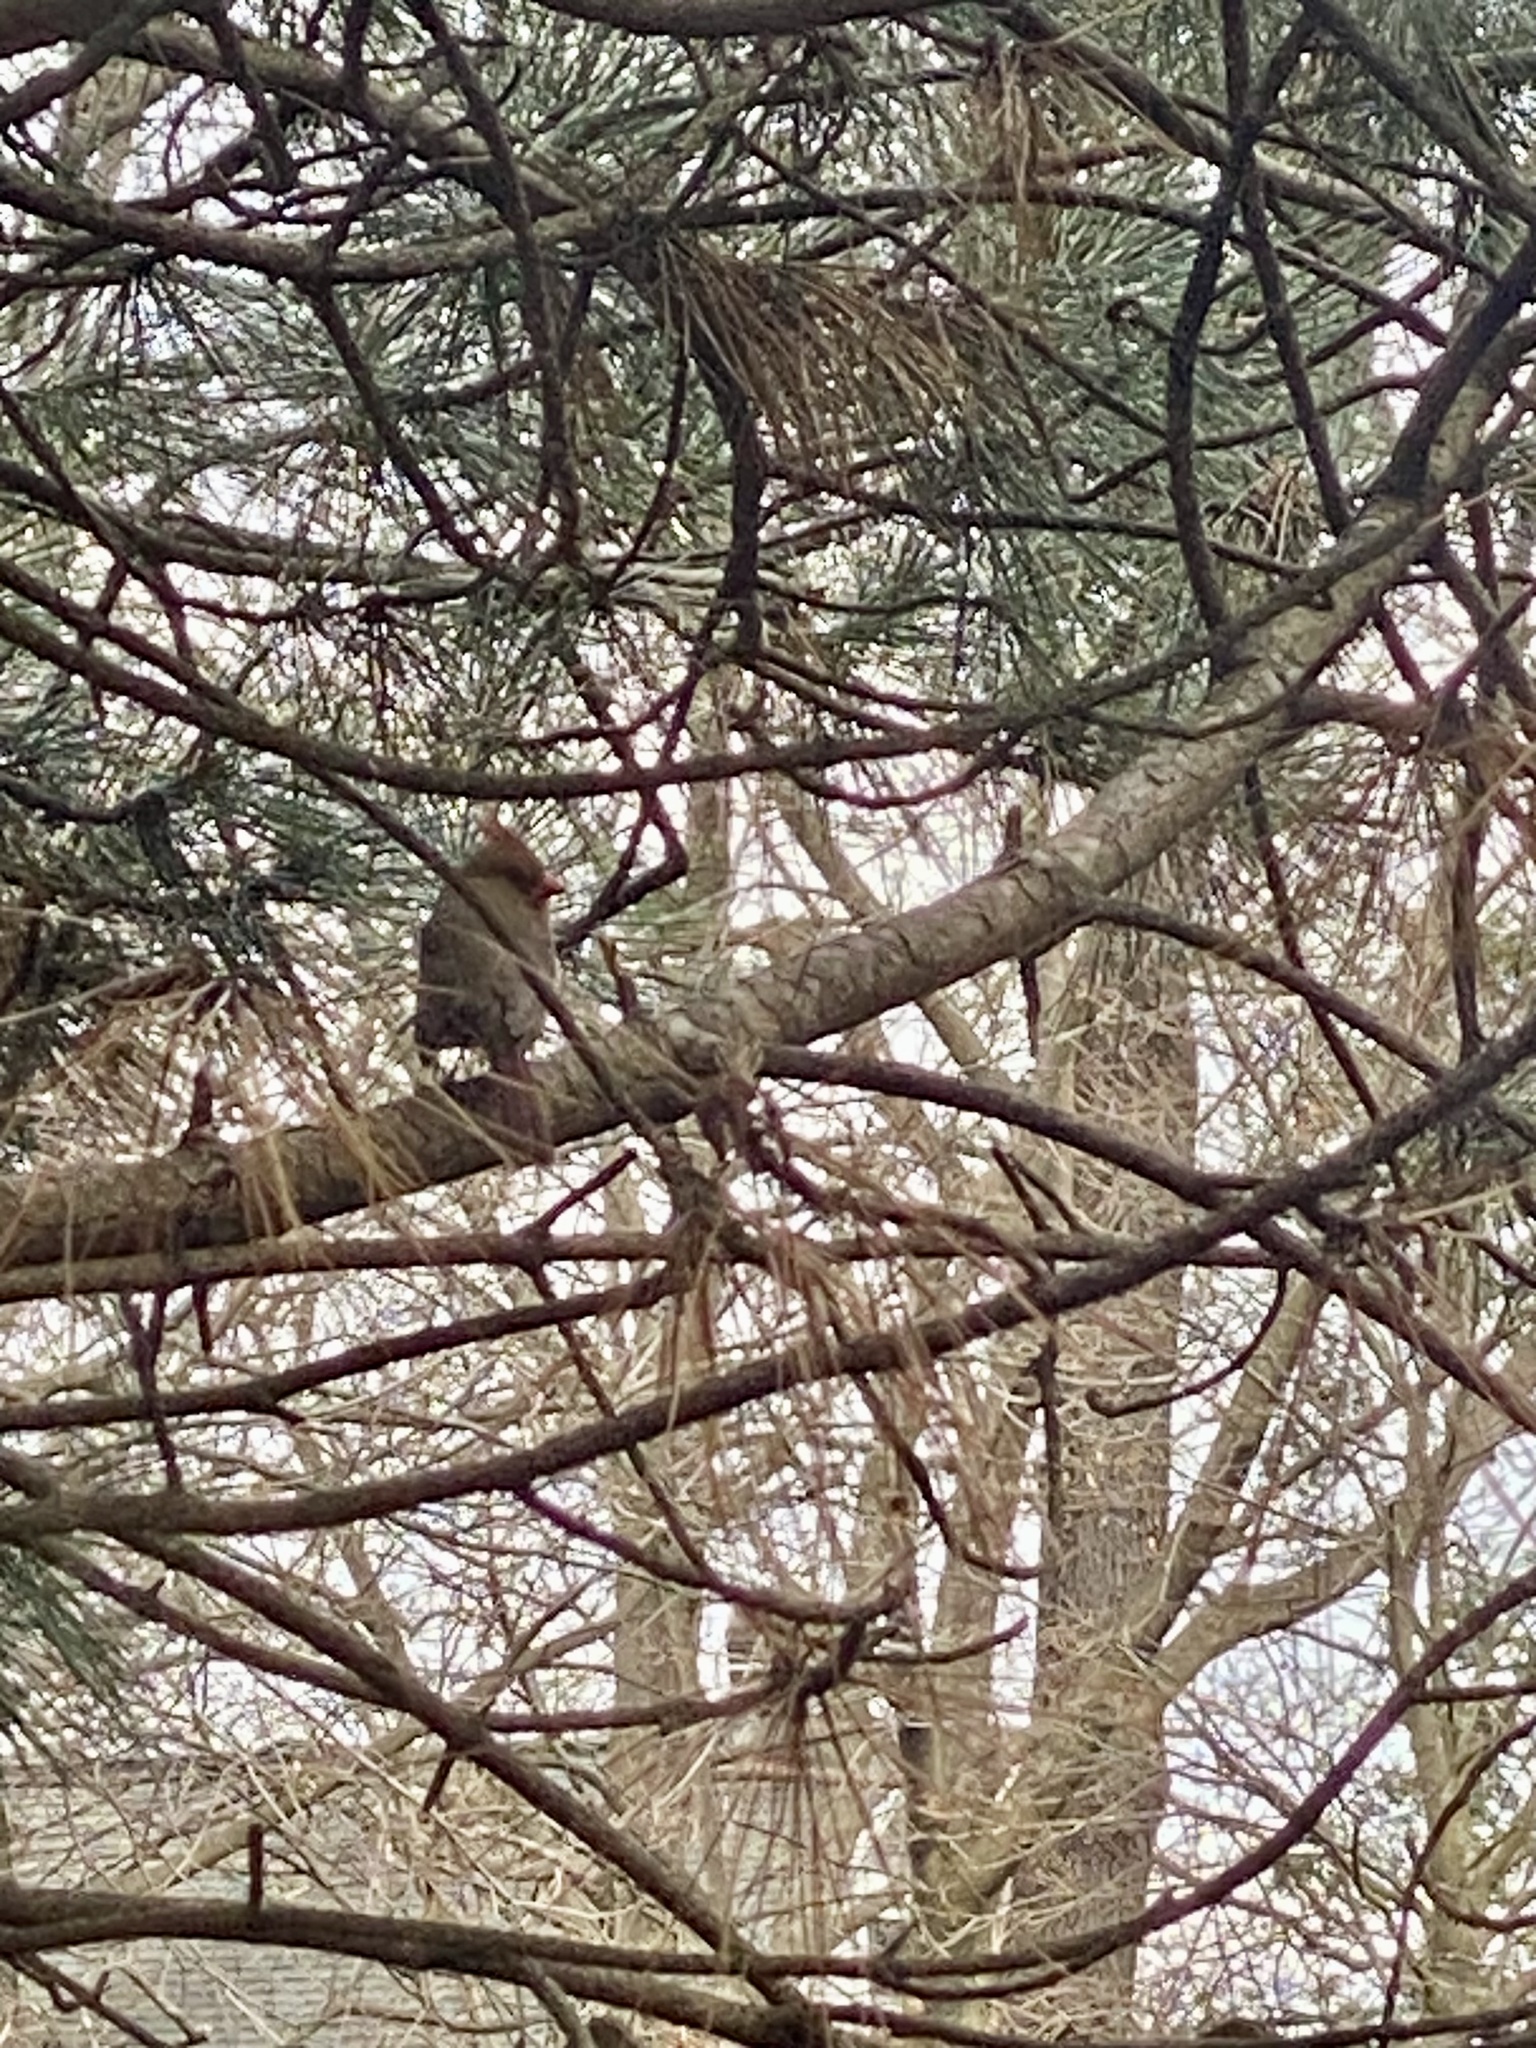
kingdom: Animalia
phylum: Chordata
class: Aves
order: Passeriformes
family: Cardinalidae
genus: Cardinalis
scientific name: Cardinalis cardinalis
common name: Northern cardinal
